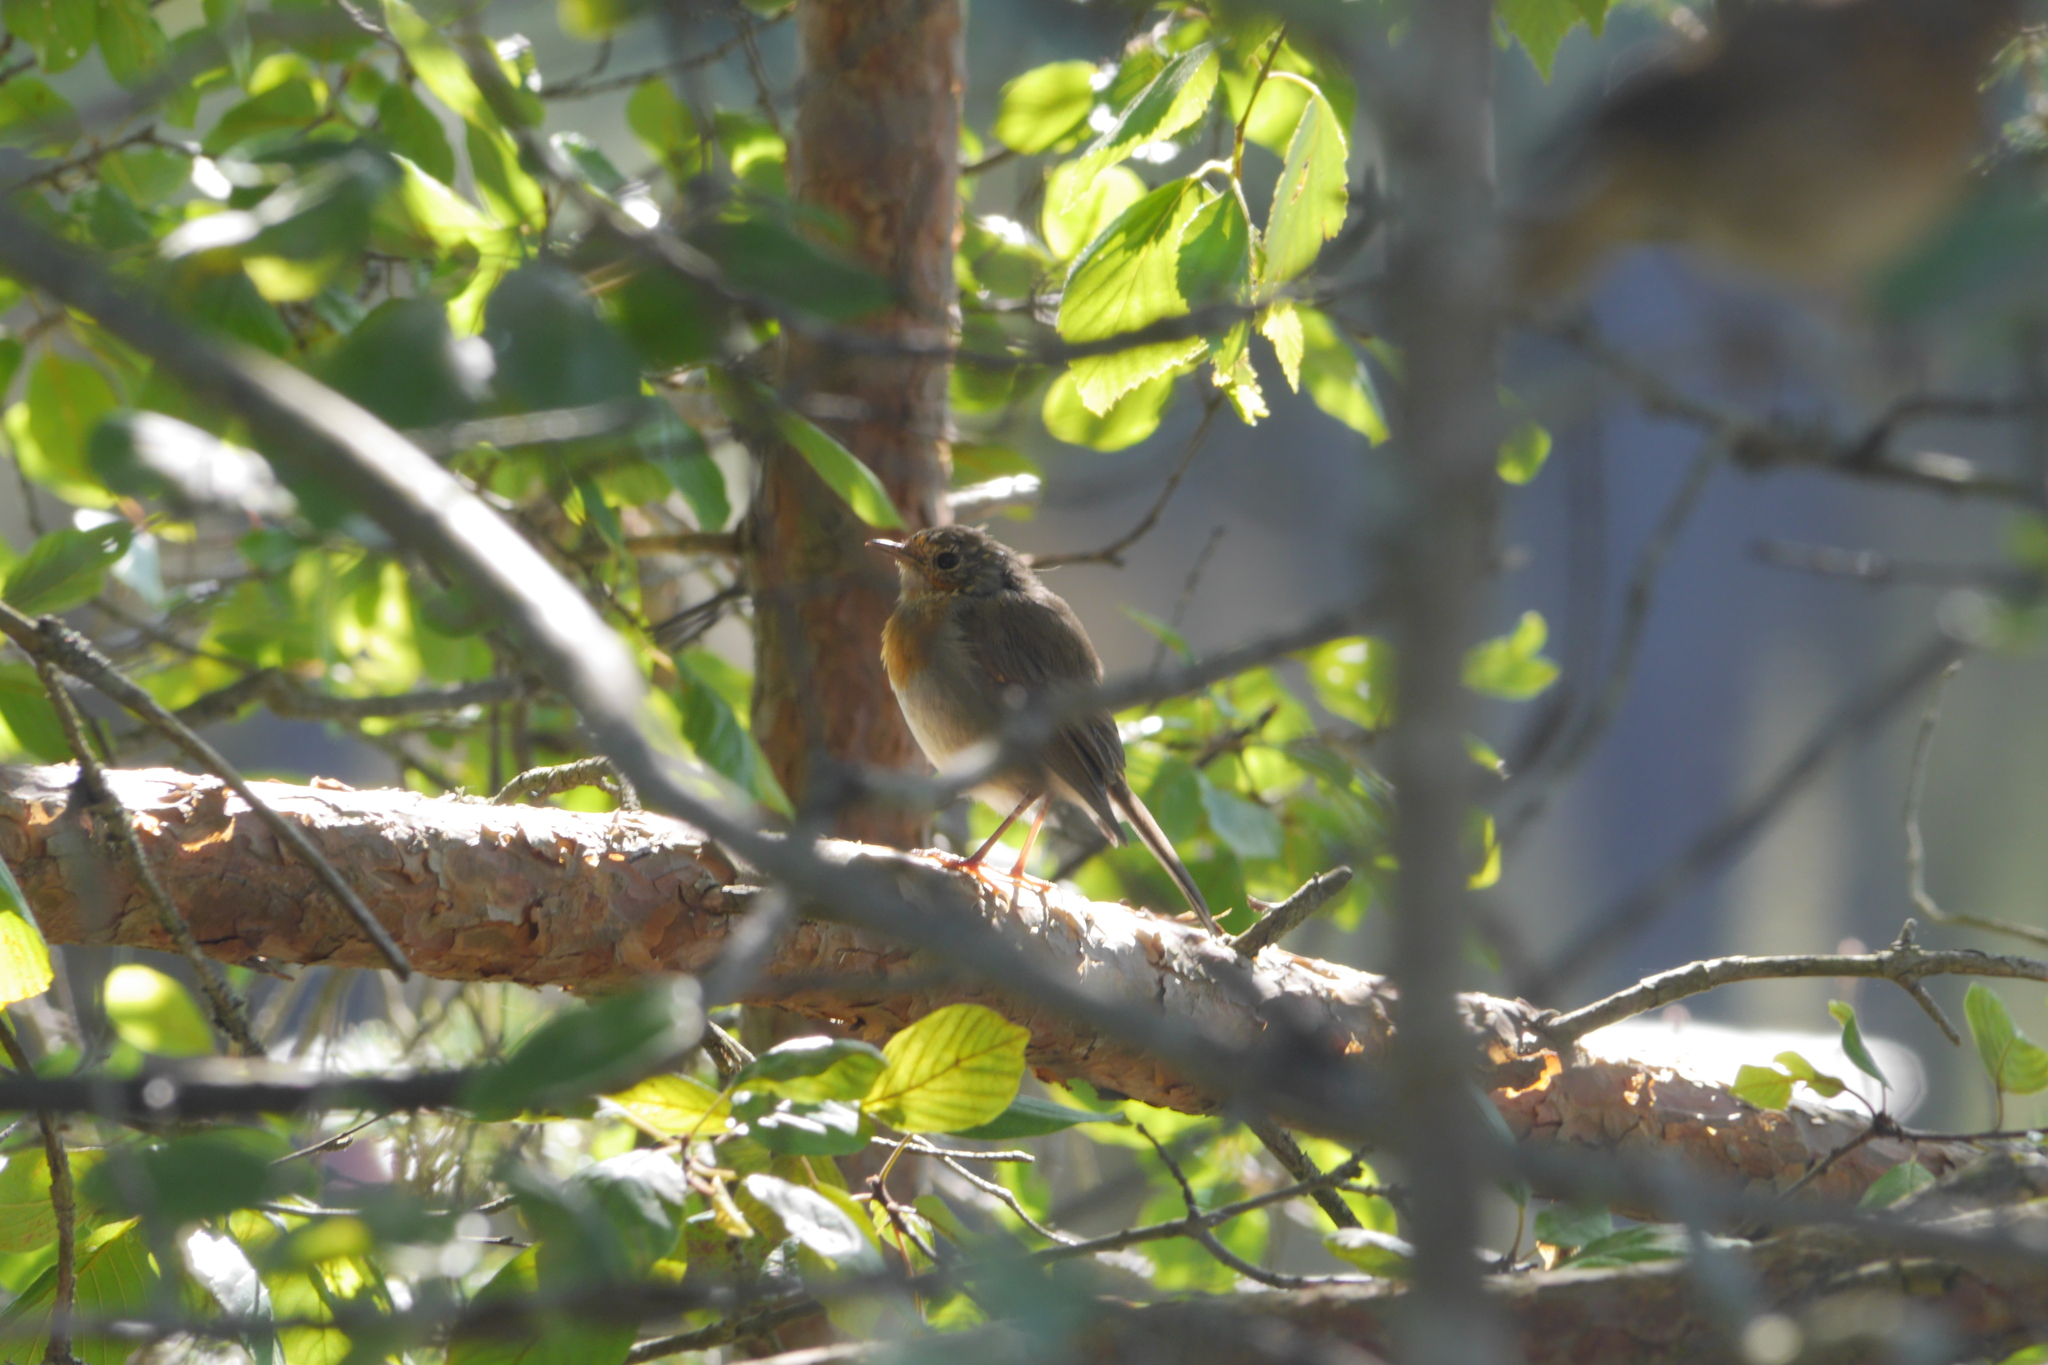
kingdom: Animalia
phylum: Chordata
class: Aves
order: Passeriformes
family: Muscicapidae
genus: Erithacus
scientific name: Erithacus rubecula
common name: European robin
